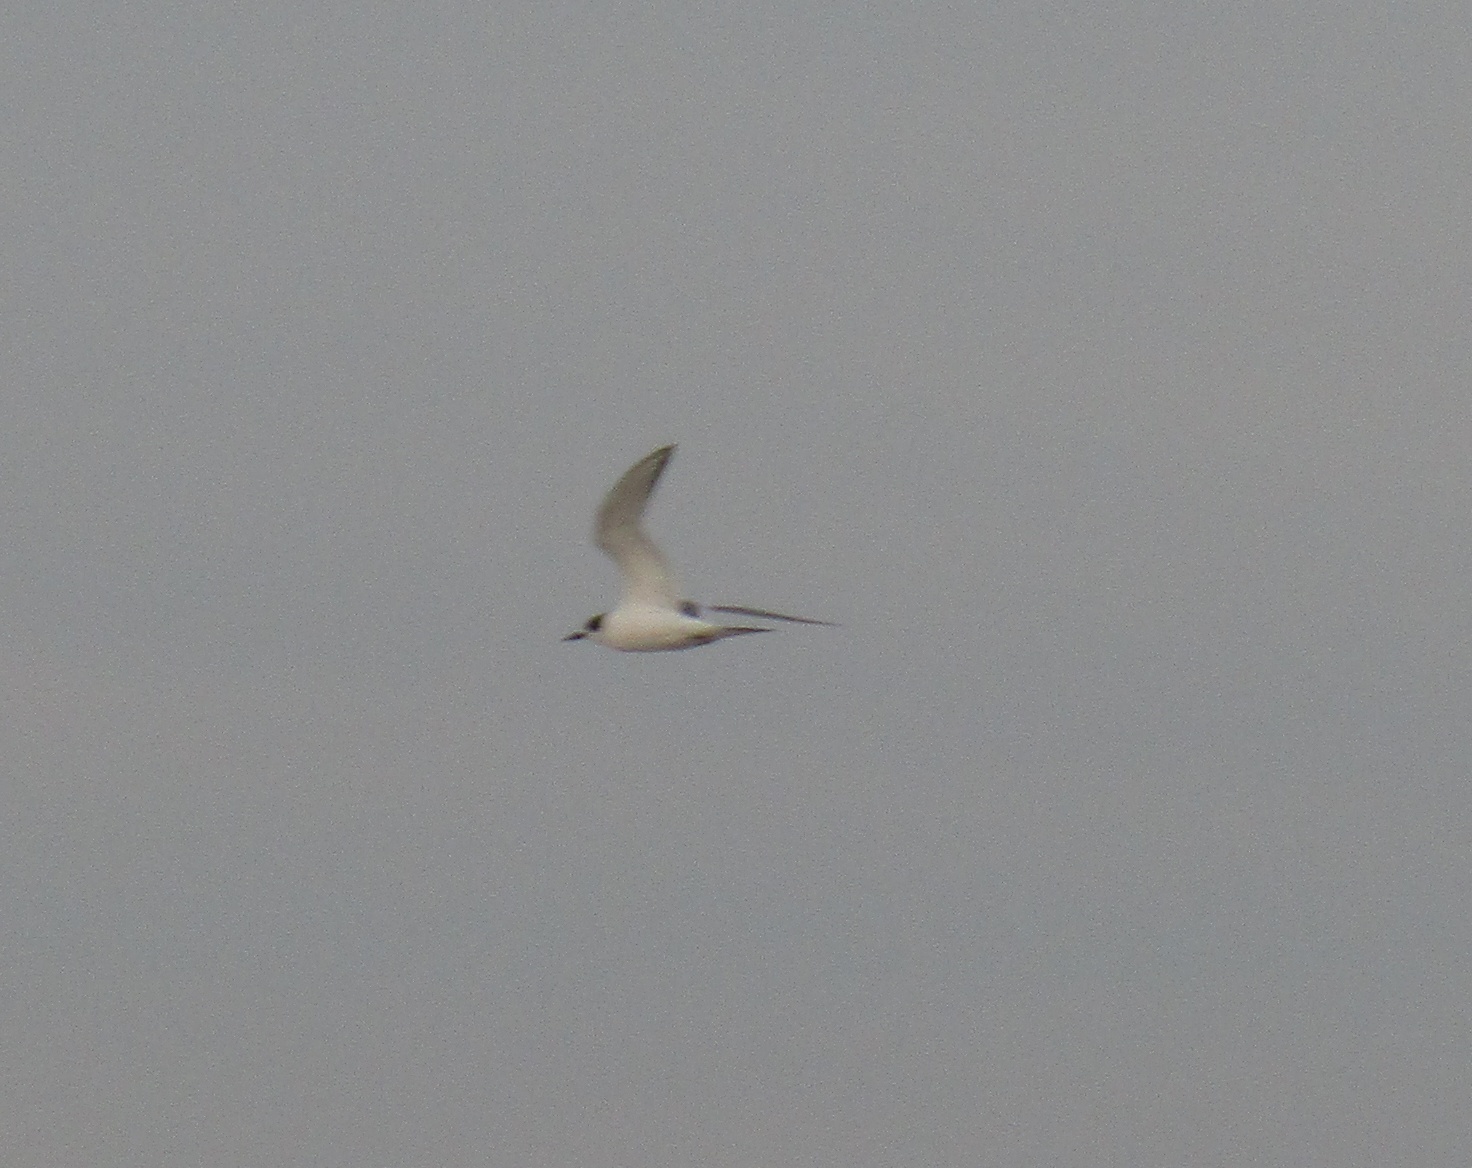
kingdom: Animalia
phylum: Chordata
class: Aves
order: Charadriiformes
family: Laridae
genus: Sterna
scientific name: Sterna hirundinacea
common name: South american tern
